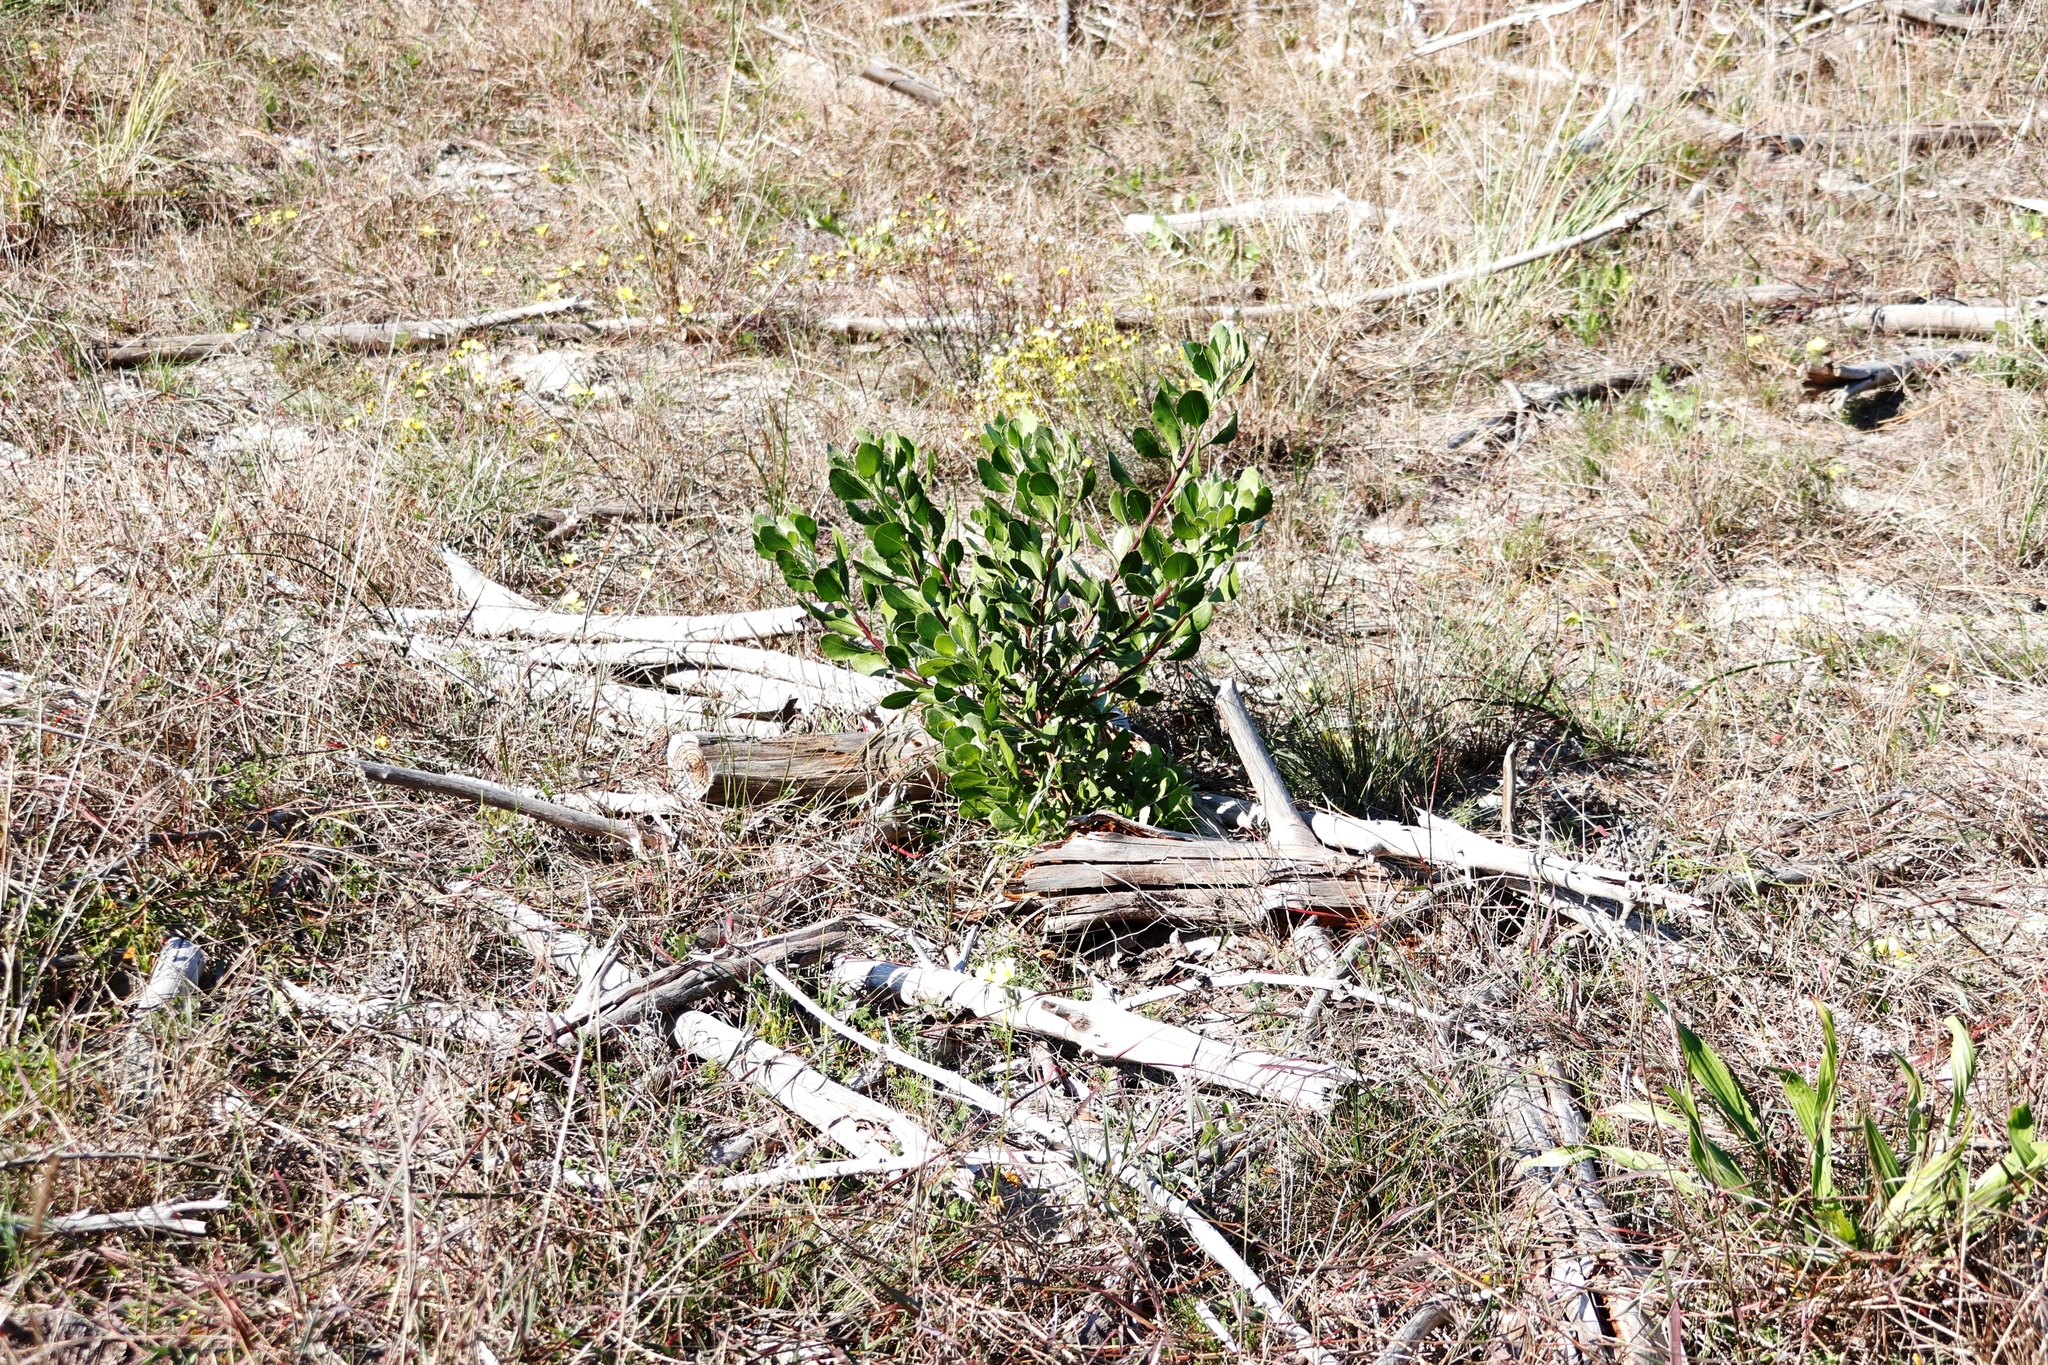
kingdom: Plantae
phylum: Tracheophyta
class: Magnoliopsida
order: Asterales
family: Asteraceae
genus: Osteospermum
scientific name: Osteospermum moniliferum
